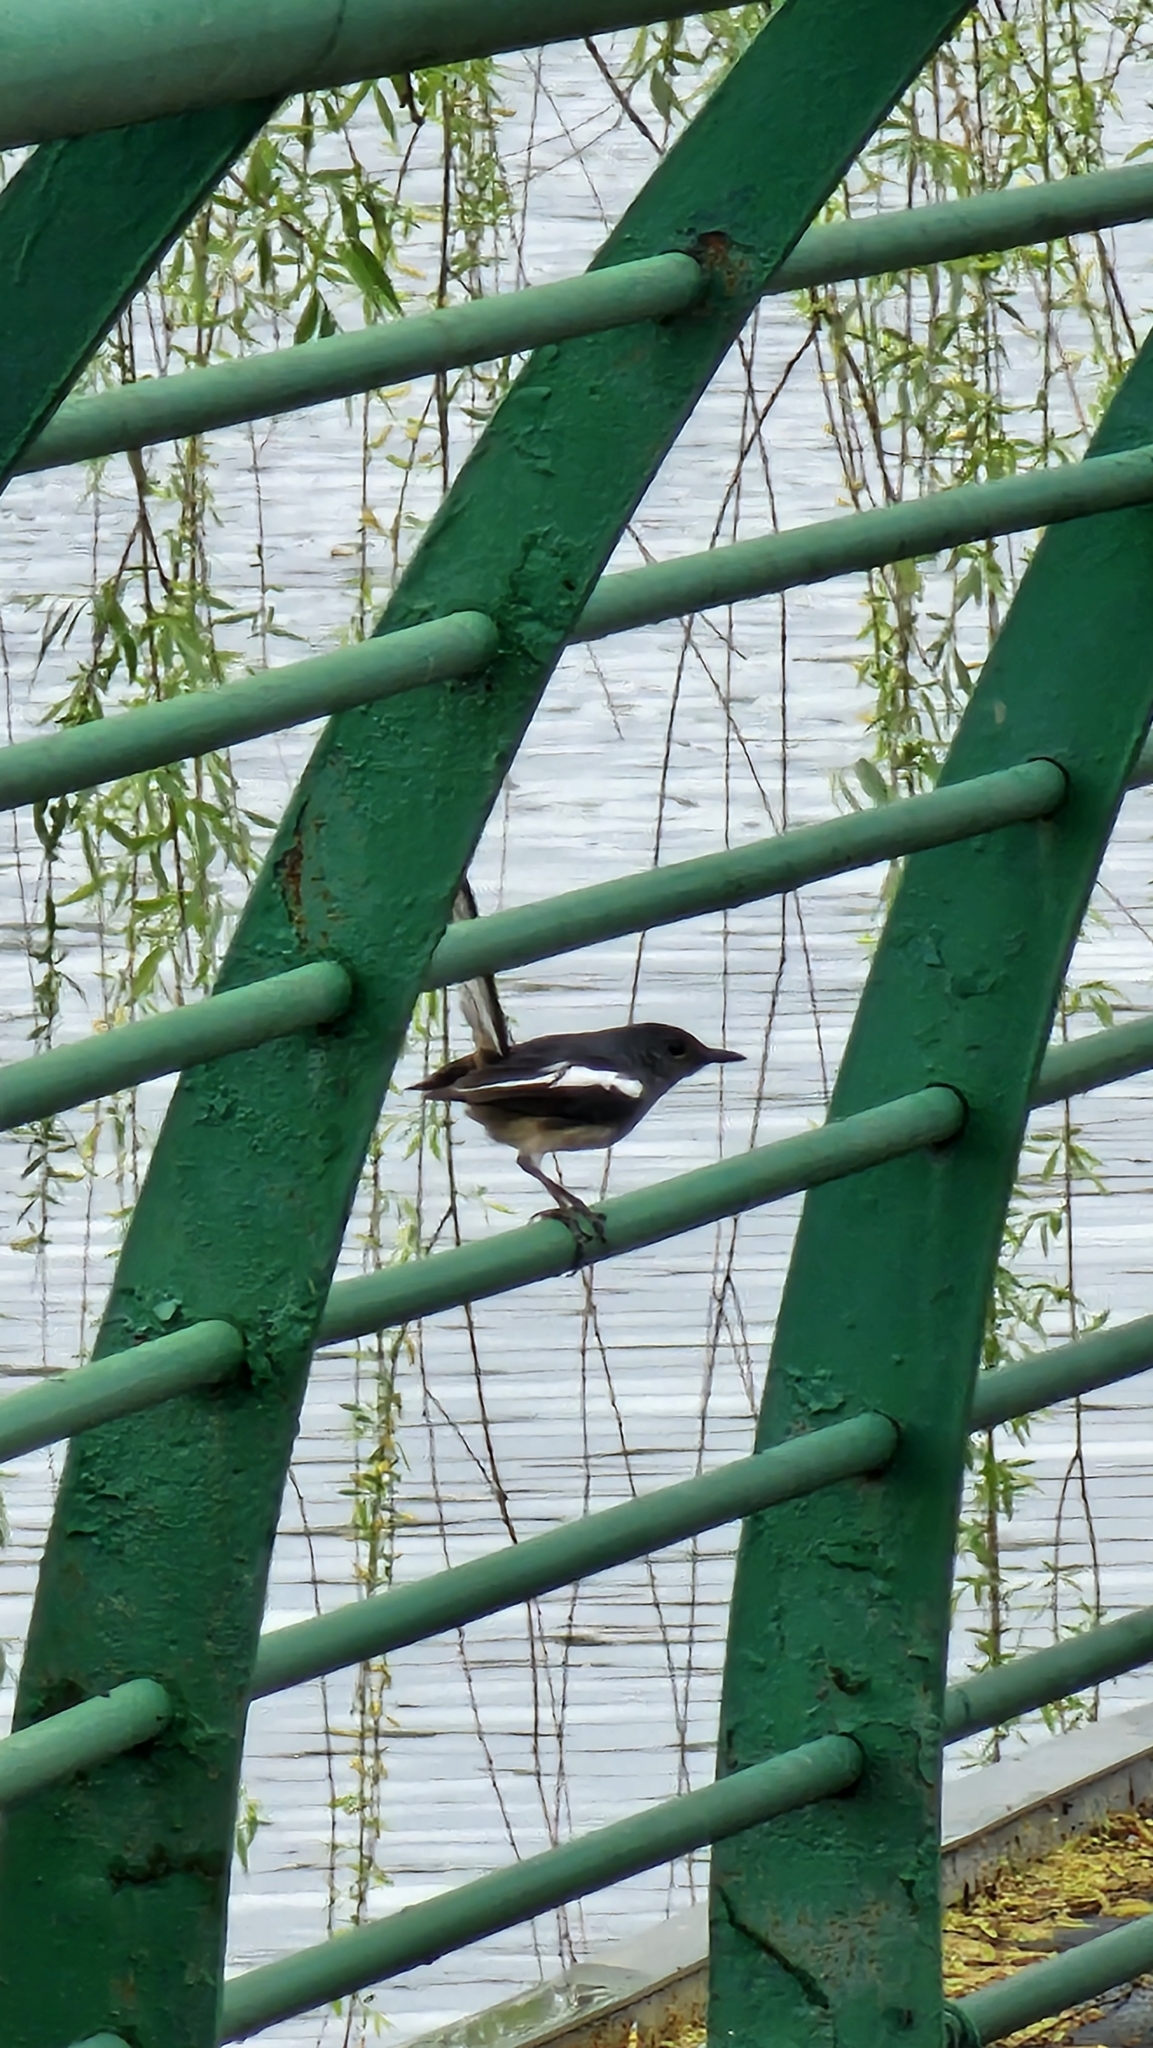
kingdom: Animalia
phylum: Chordata
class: Aves
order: Passeriformes
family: Muscicapidae
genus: Copsychus
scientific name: Copsychus saularis
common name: Oriental magpie-robin
